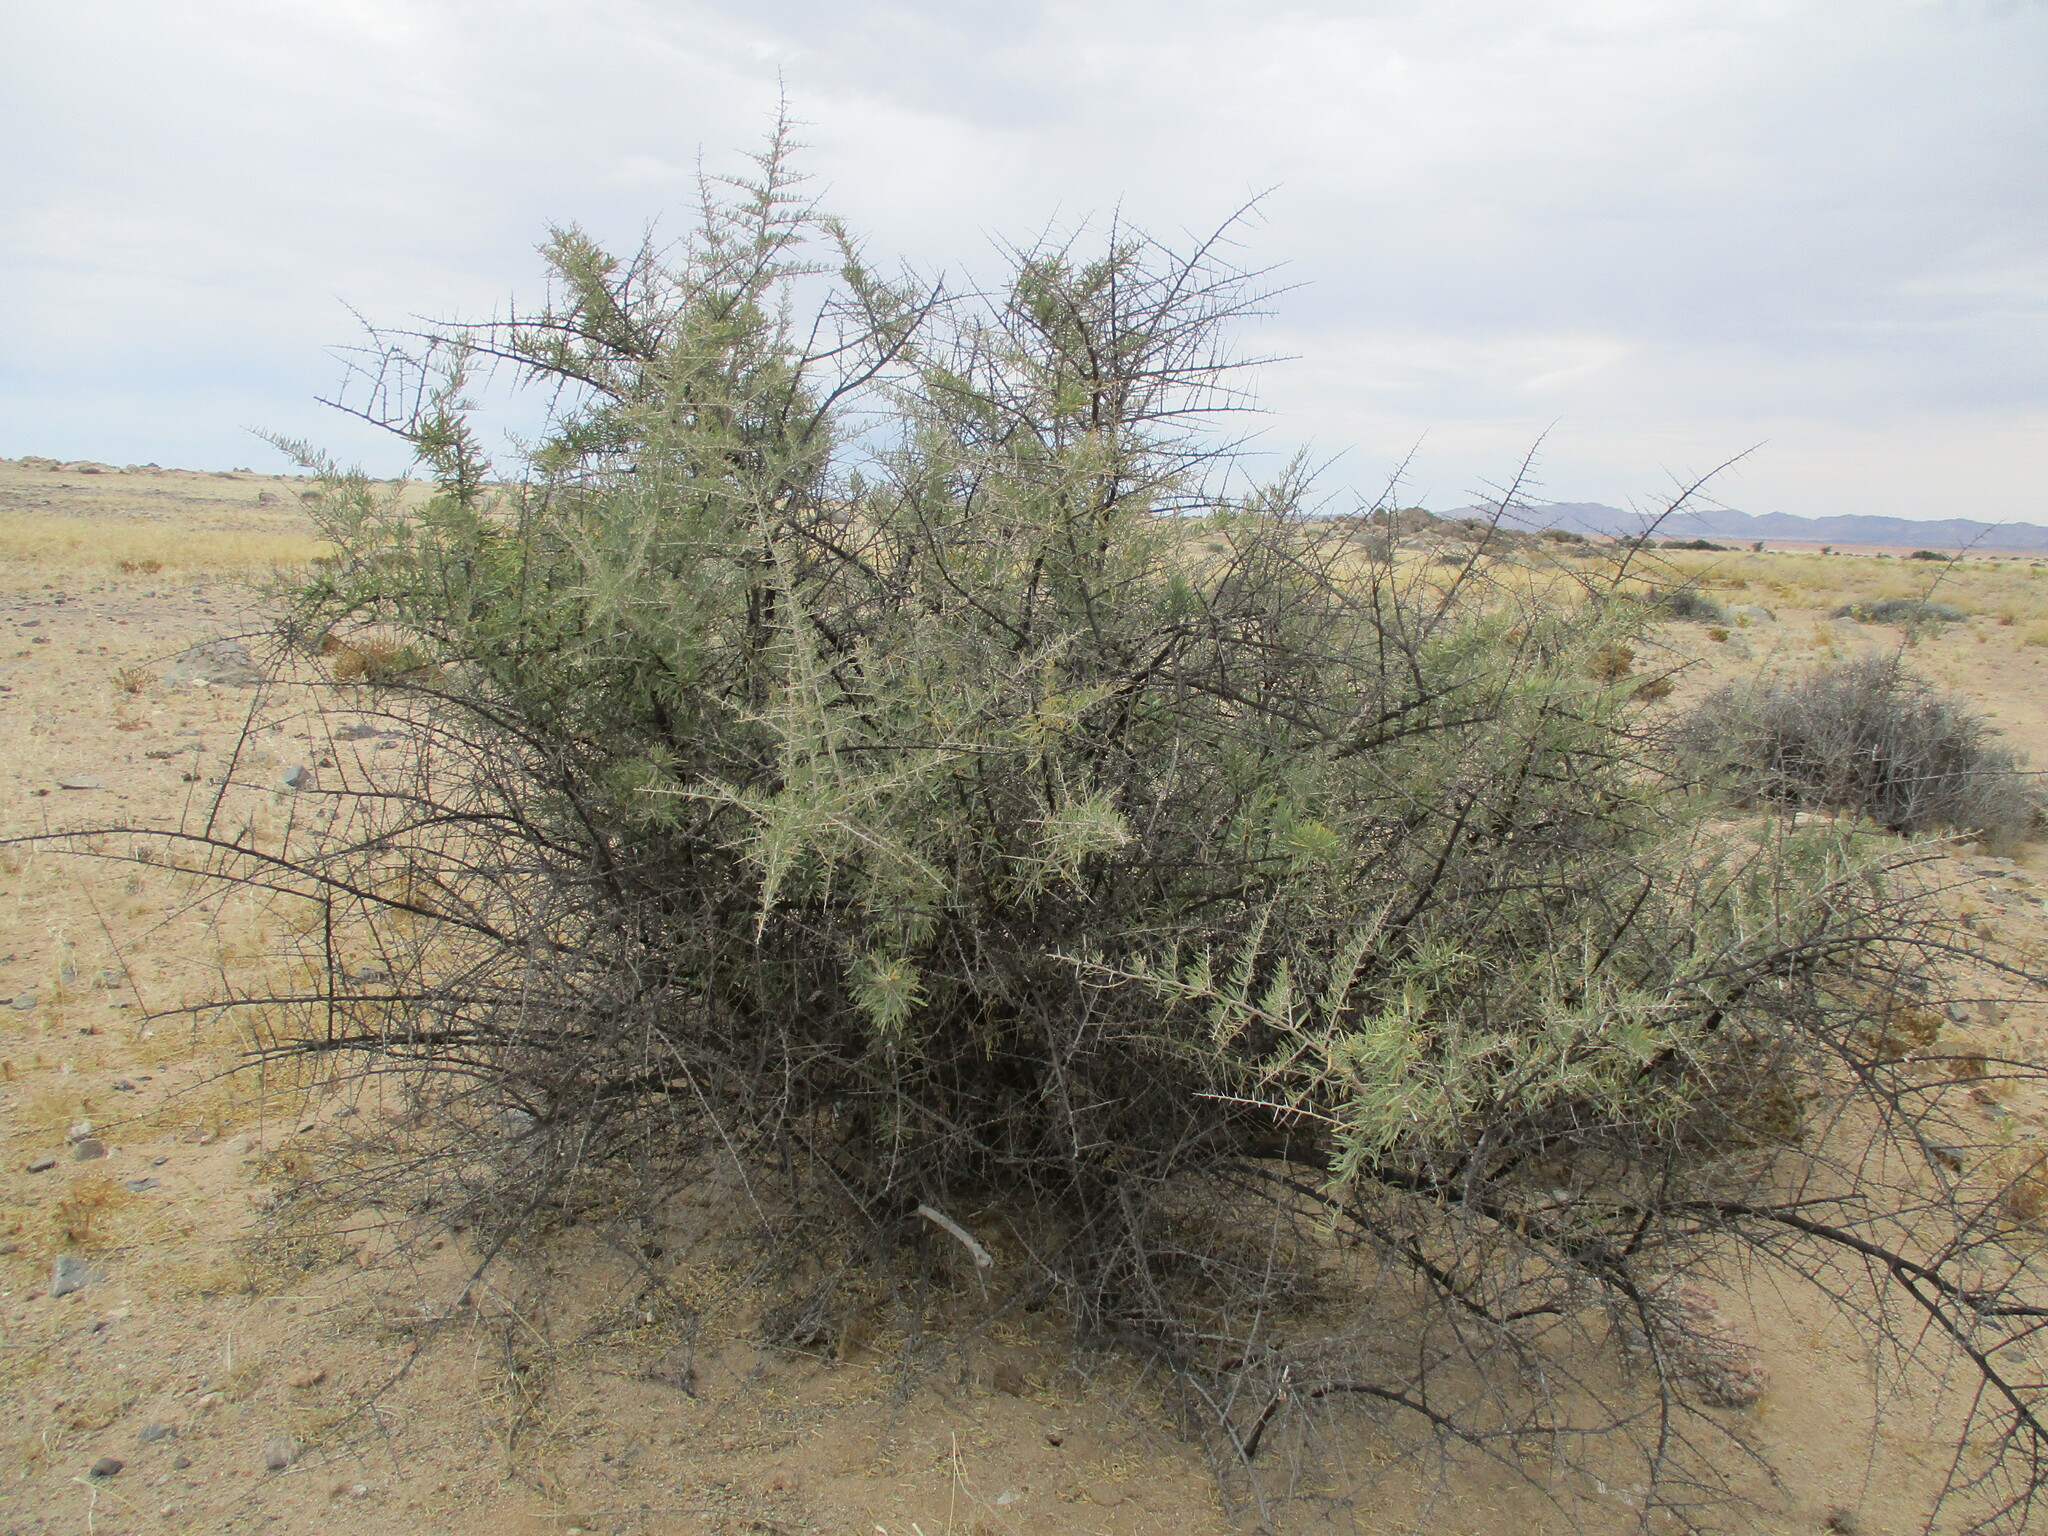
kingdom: Plantae
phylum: Tracheophyta
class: Magnoliopsida
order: Caryophyllales
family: Nyctaginaceae
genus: Phaeoptilum
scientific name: Phaeoptilum spinosum
